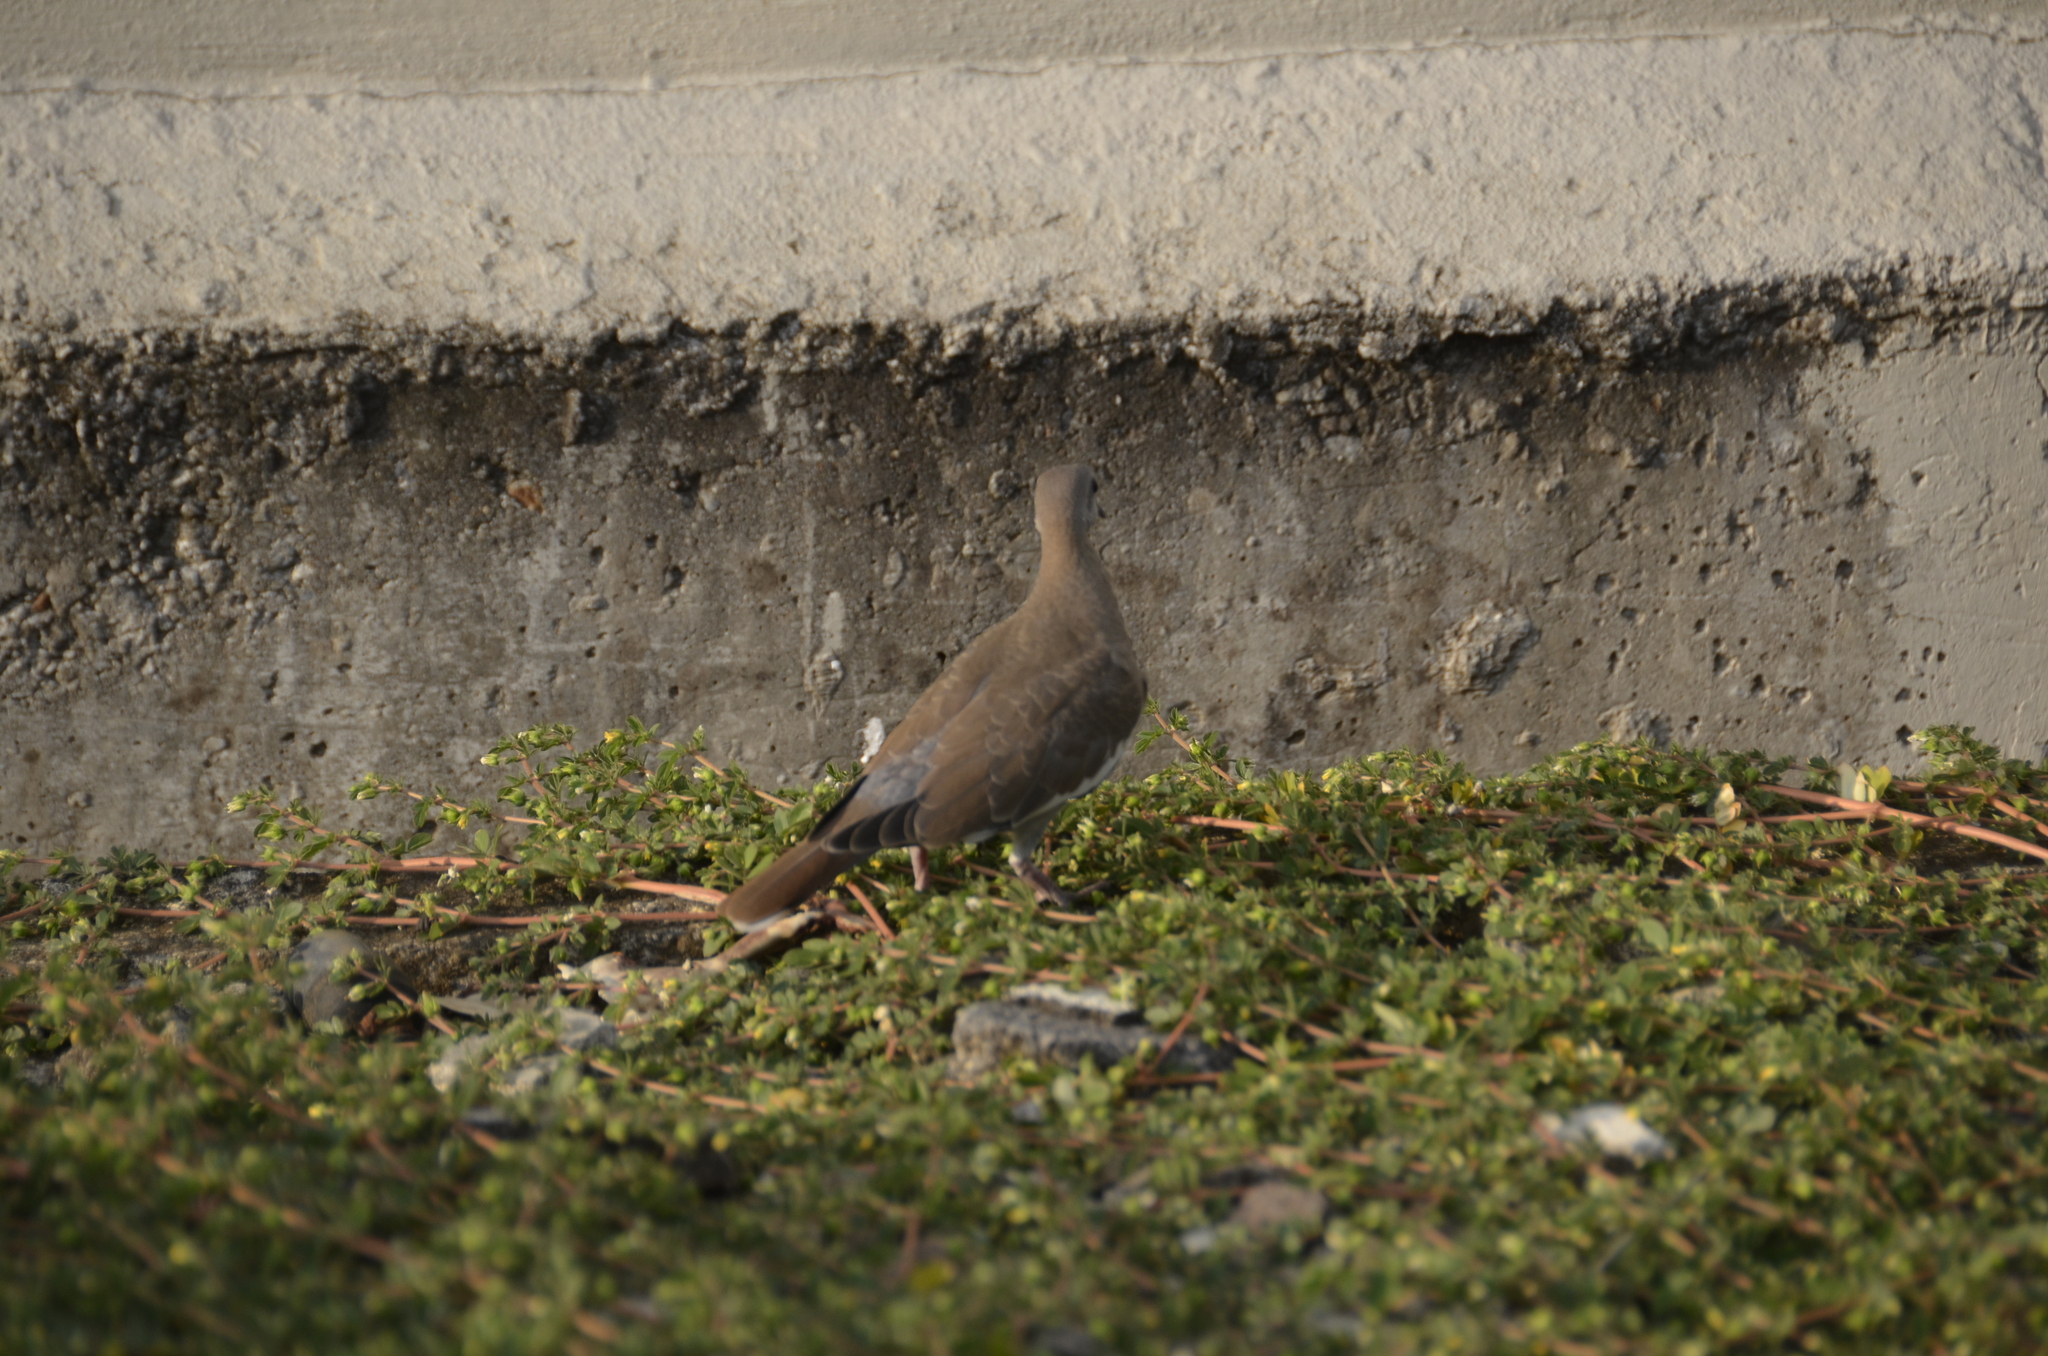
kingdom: Animalia
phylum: Chordata
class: Aves
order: Columbiformes
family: Columbidae
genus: Zenaida
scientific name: Zenaida asiatica
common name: White-winged dove
